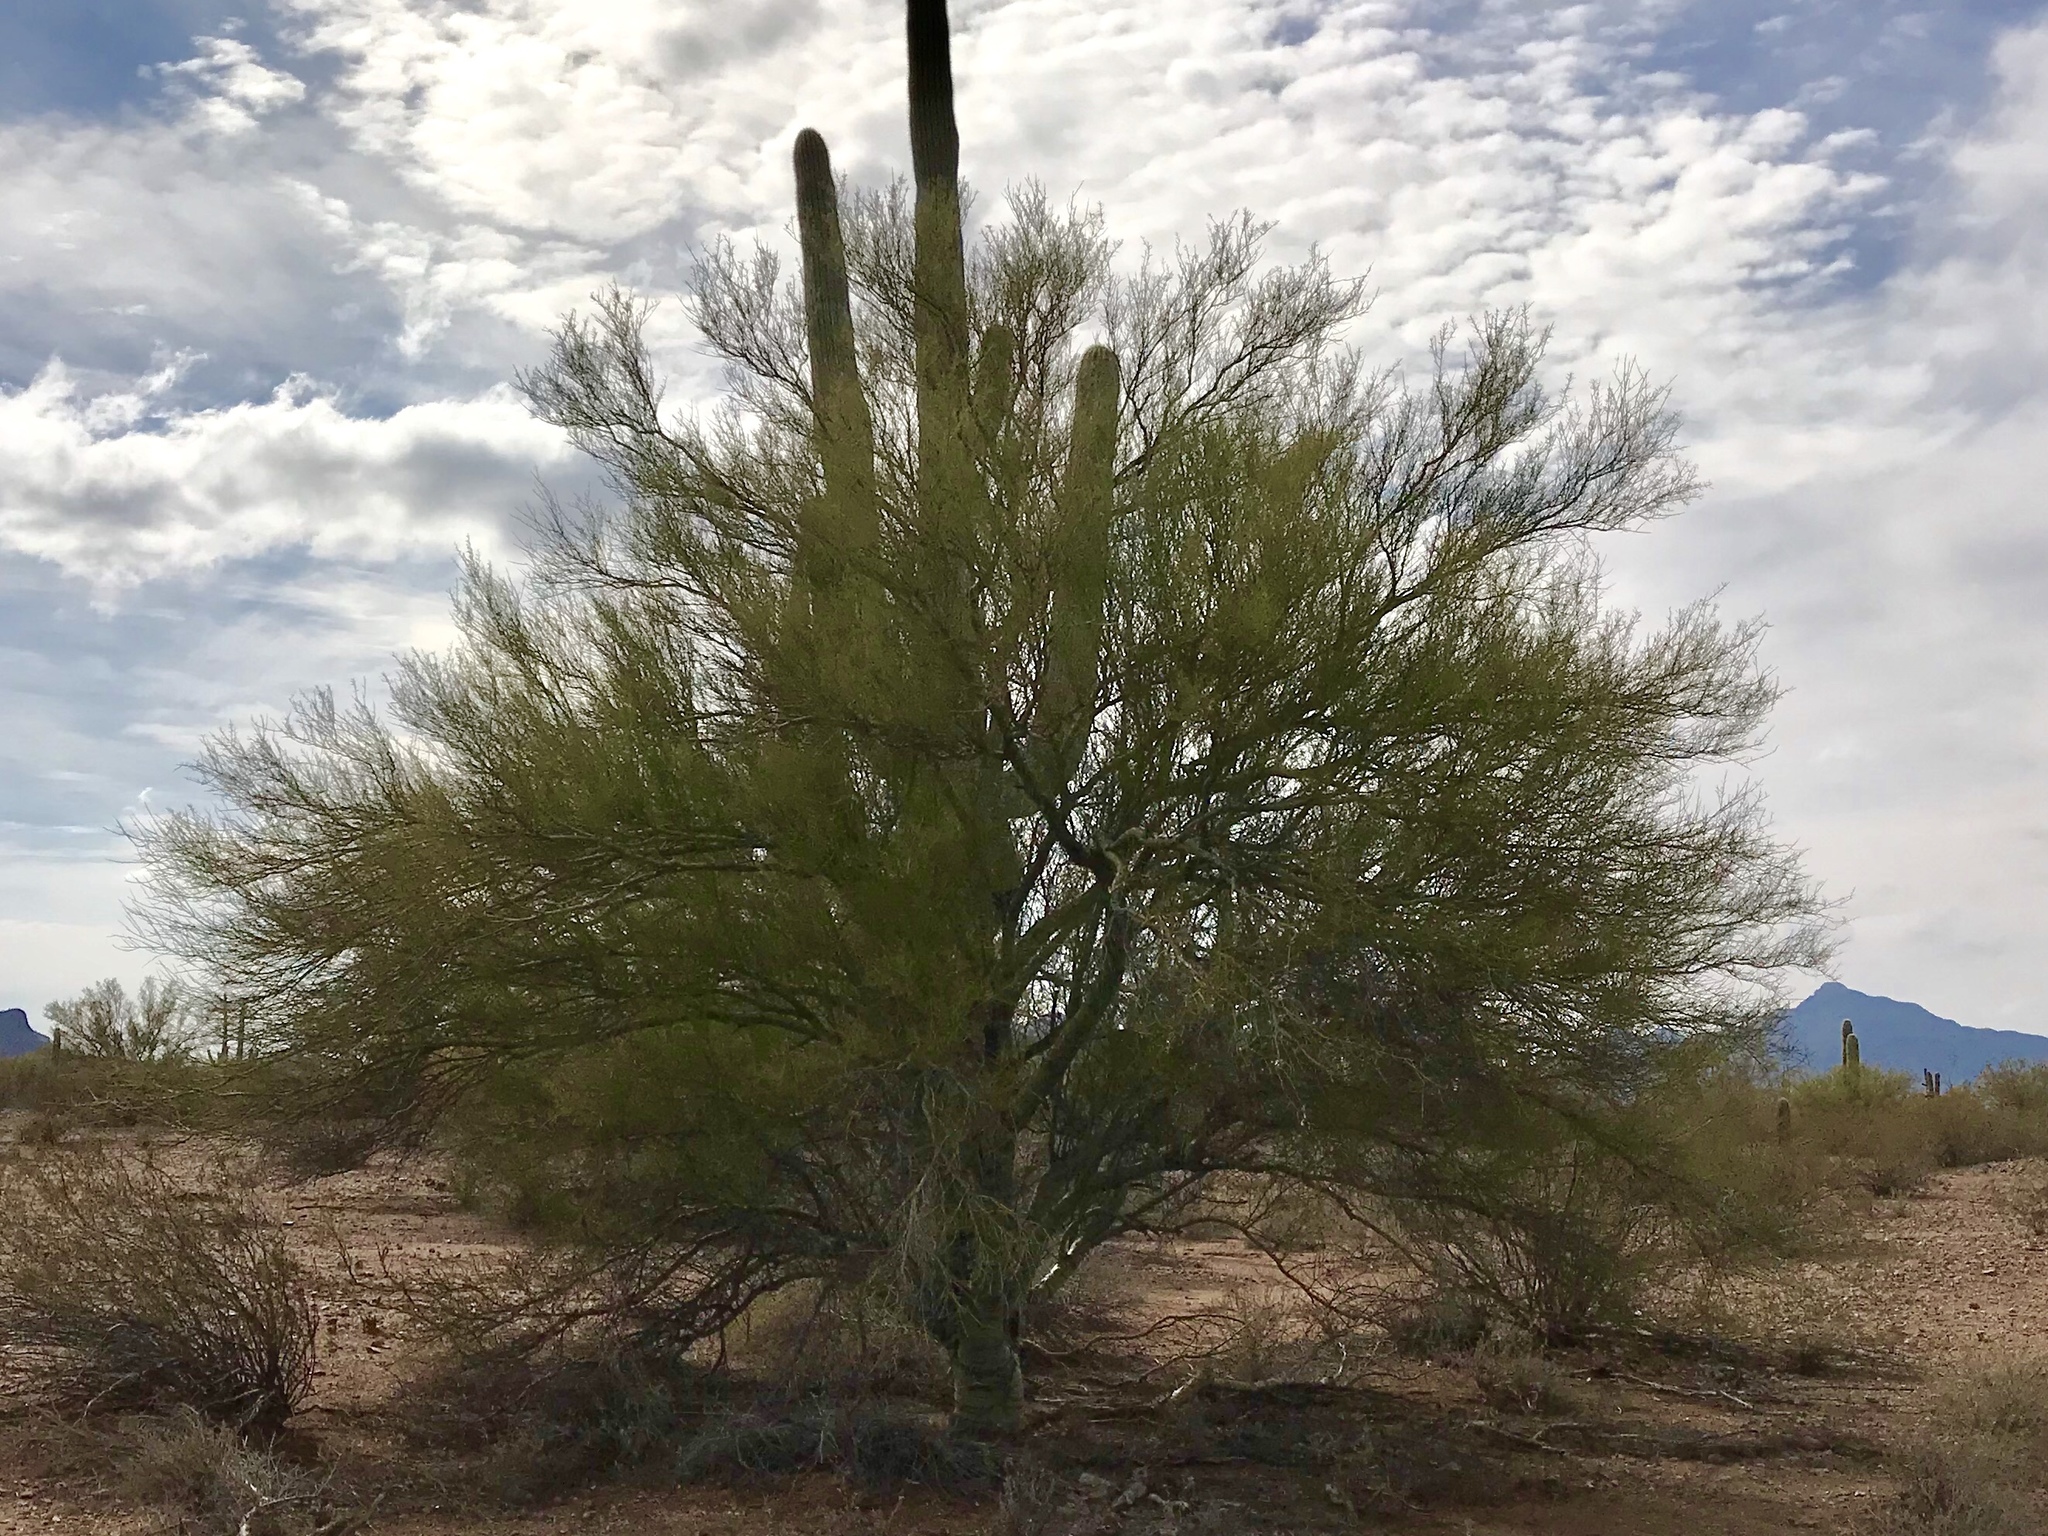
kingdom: Plantae
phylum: Tracheophyta
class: Magnoliopsida
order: Fabales
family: Fabaceae
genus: Parkinsonia
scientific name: Parkinsonia microphylla
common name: Yellow paloverde
